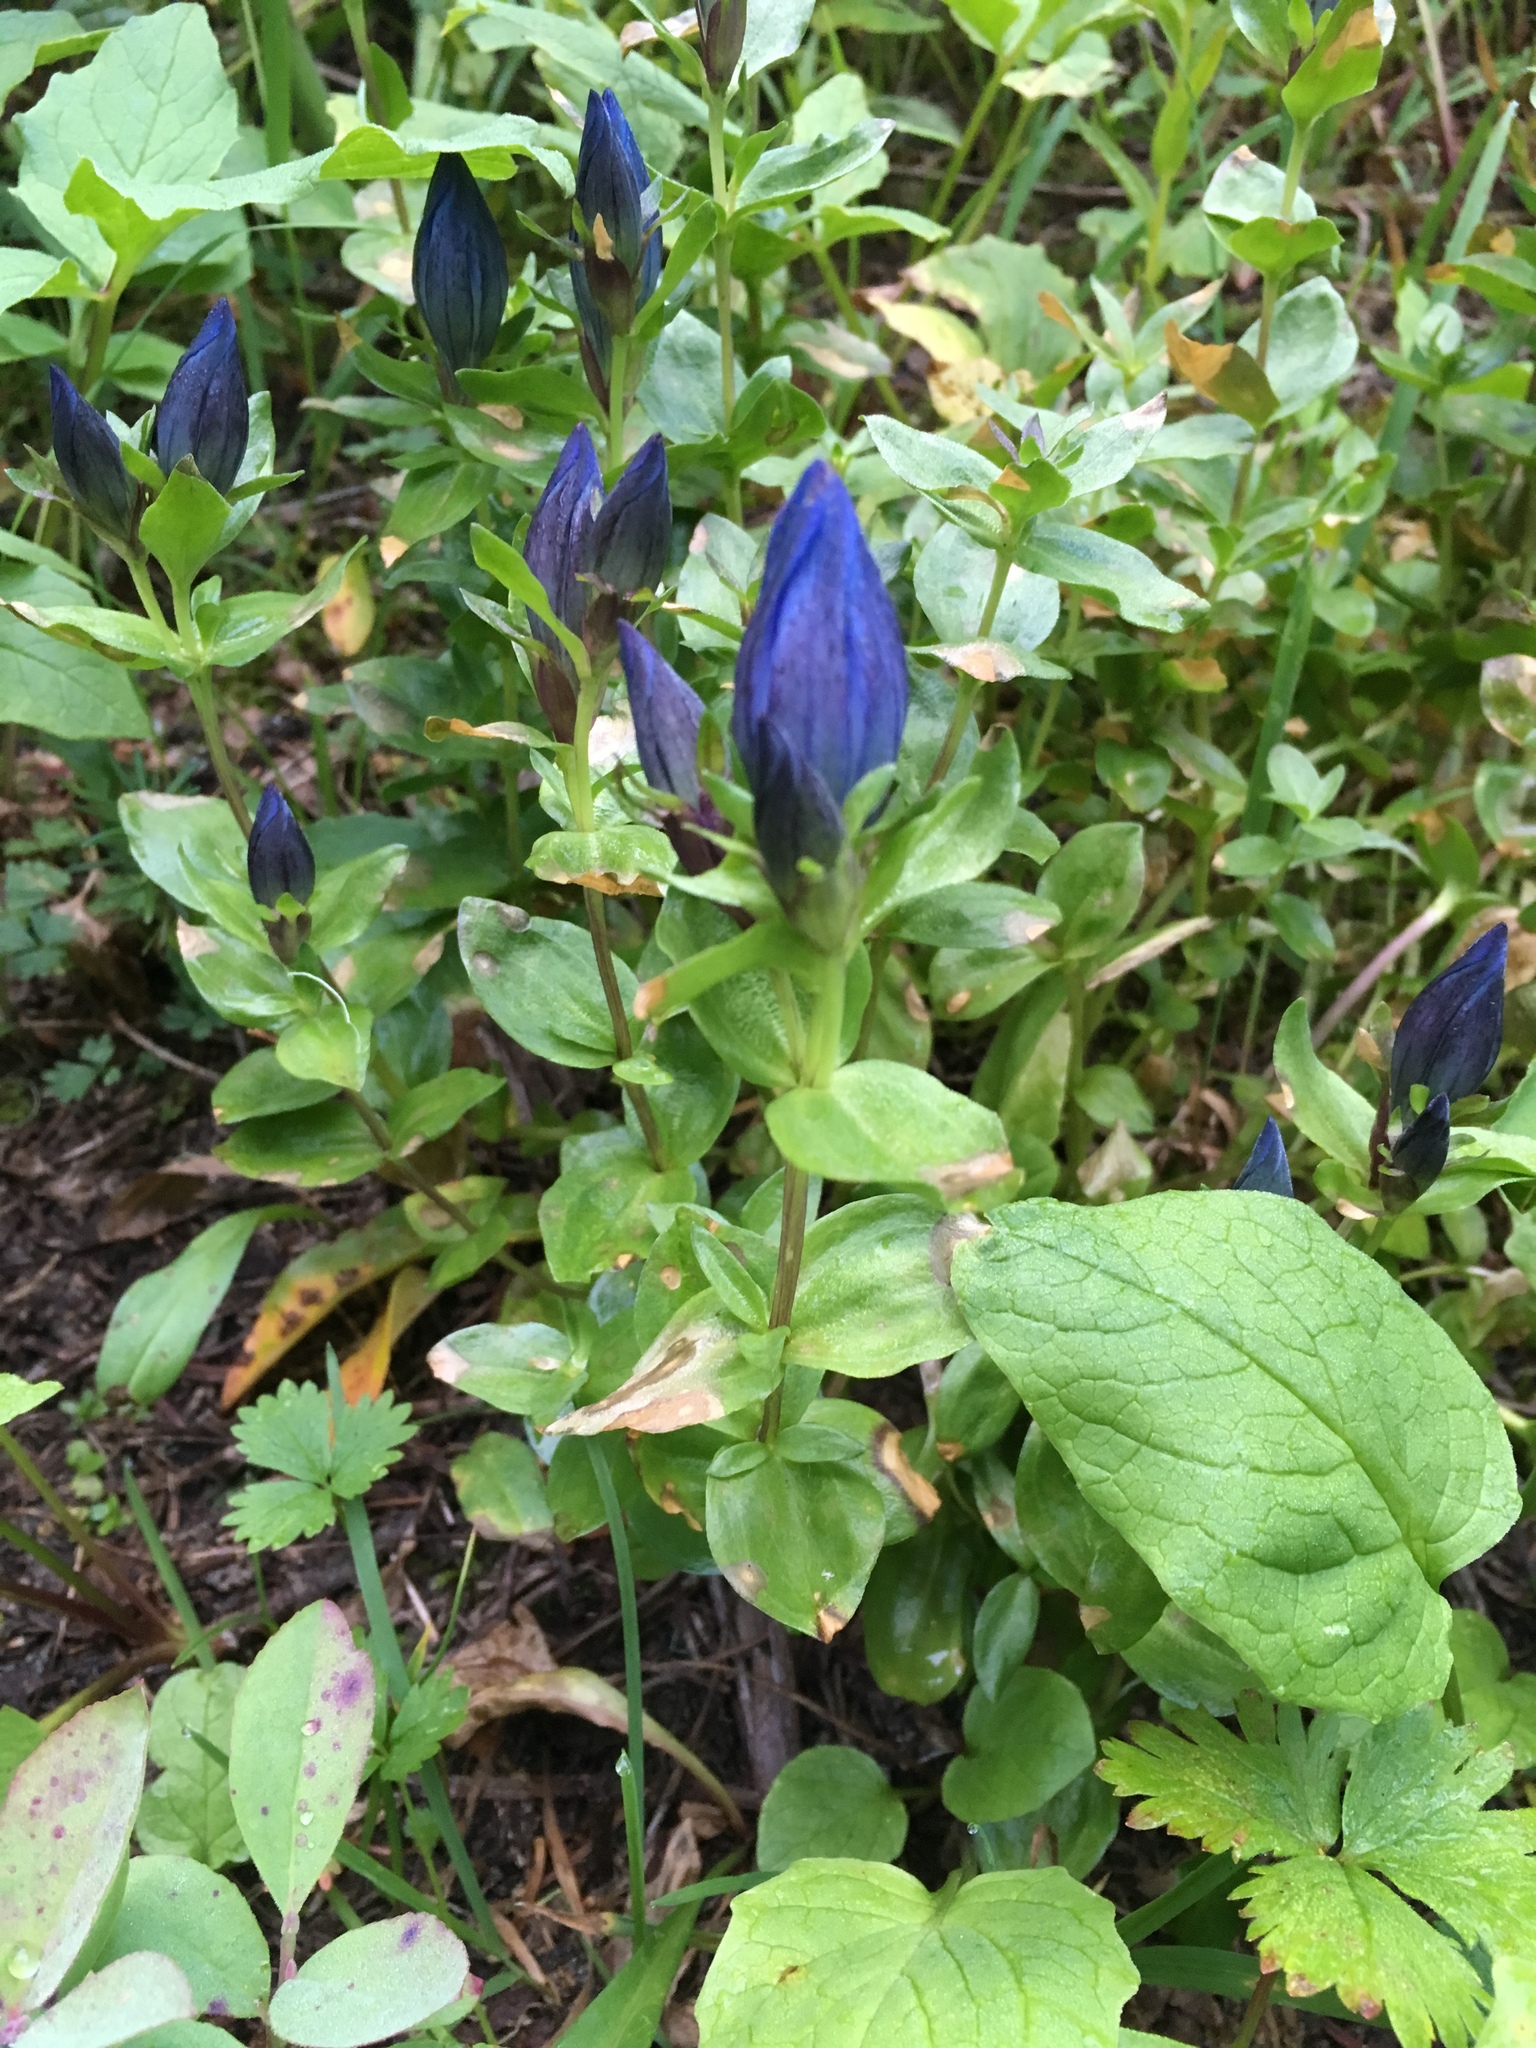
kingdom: Plantae
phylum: Tracheophyta
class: Magnoliopsida
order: Gentianales
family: Gentianaceae
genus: Gentiana
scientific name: Gentiana calycosa
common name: Rainier pleated gentian
